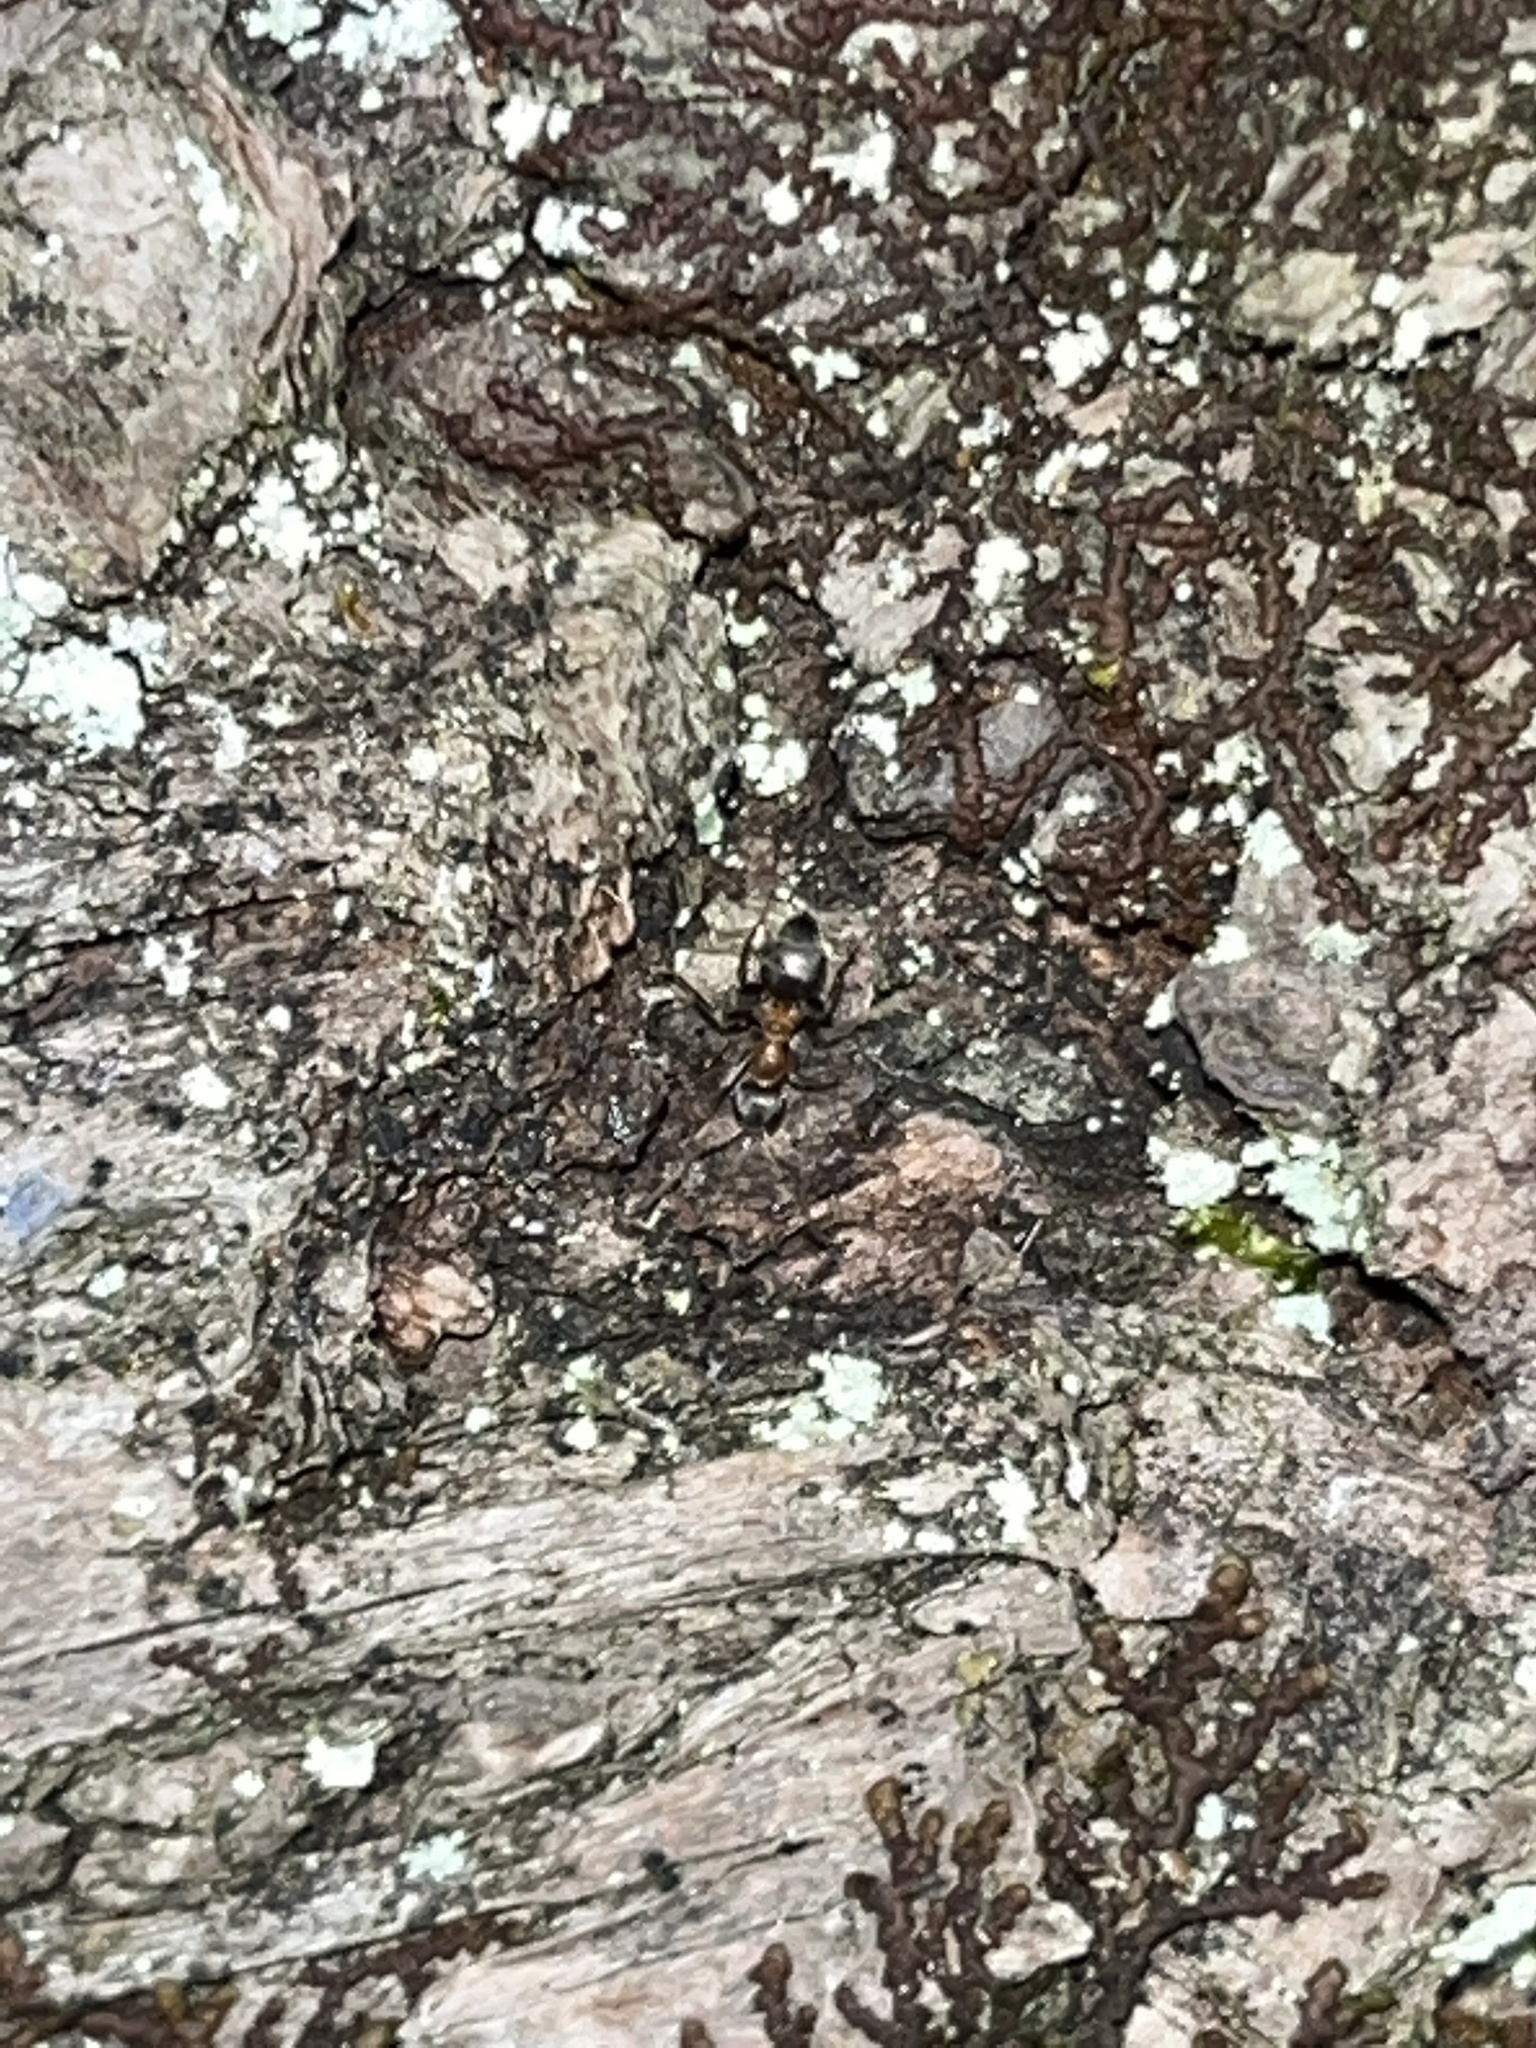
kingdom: Animalia
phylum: Arthropoda
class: Insecta
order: Hymenoptera
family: Formicidae
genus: Lasius
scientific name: Lasius emarginatus
